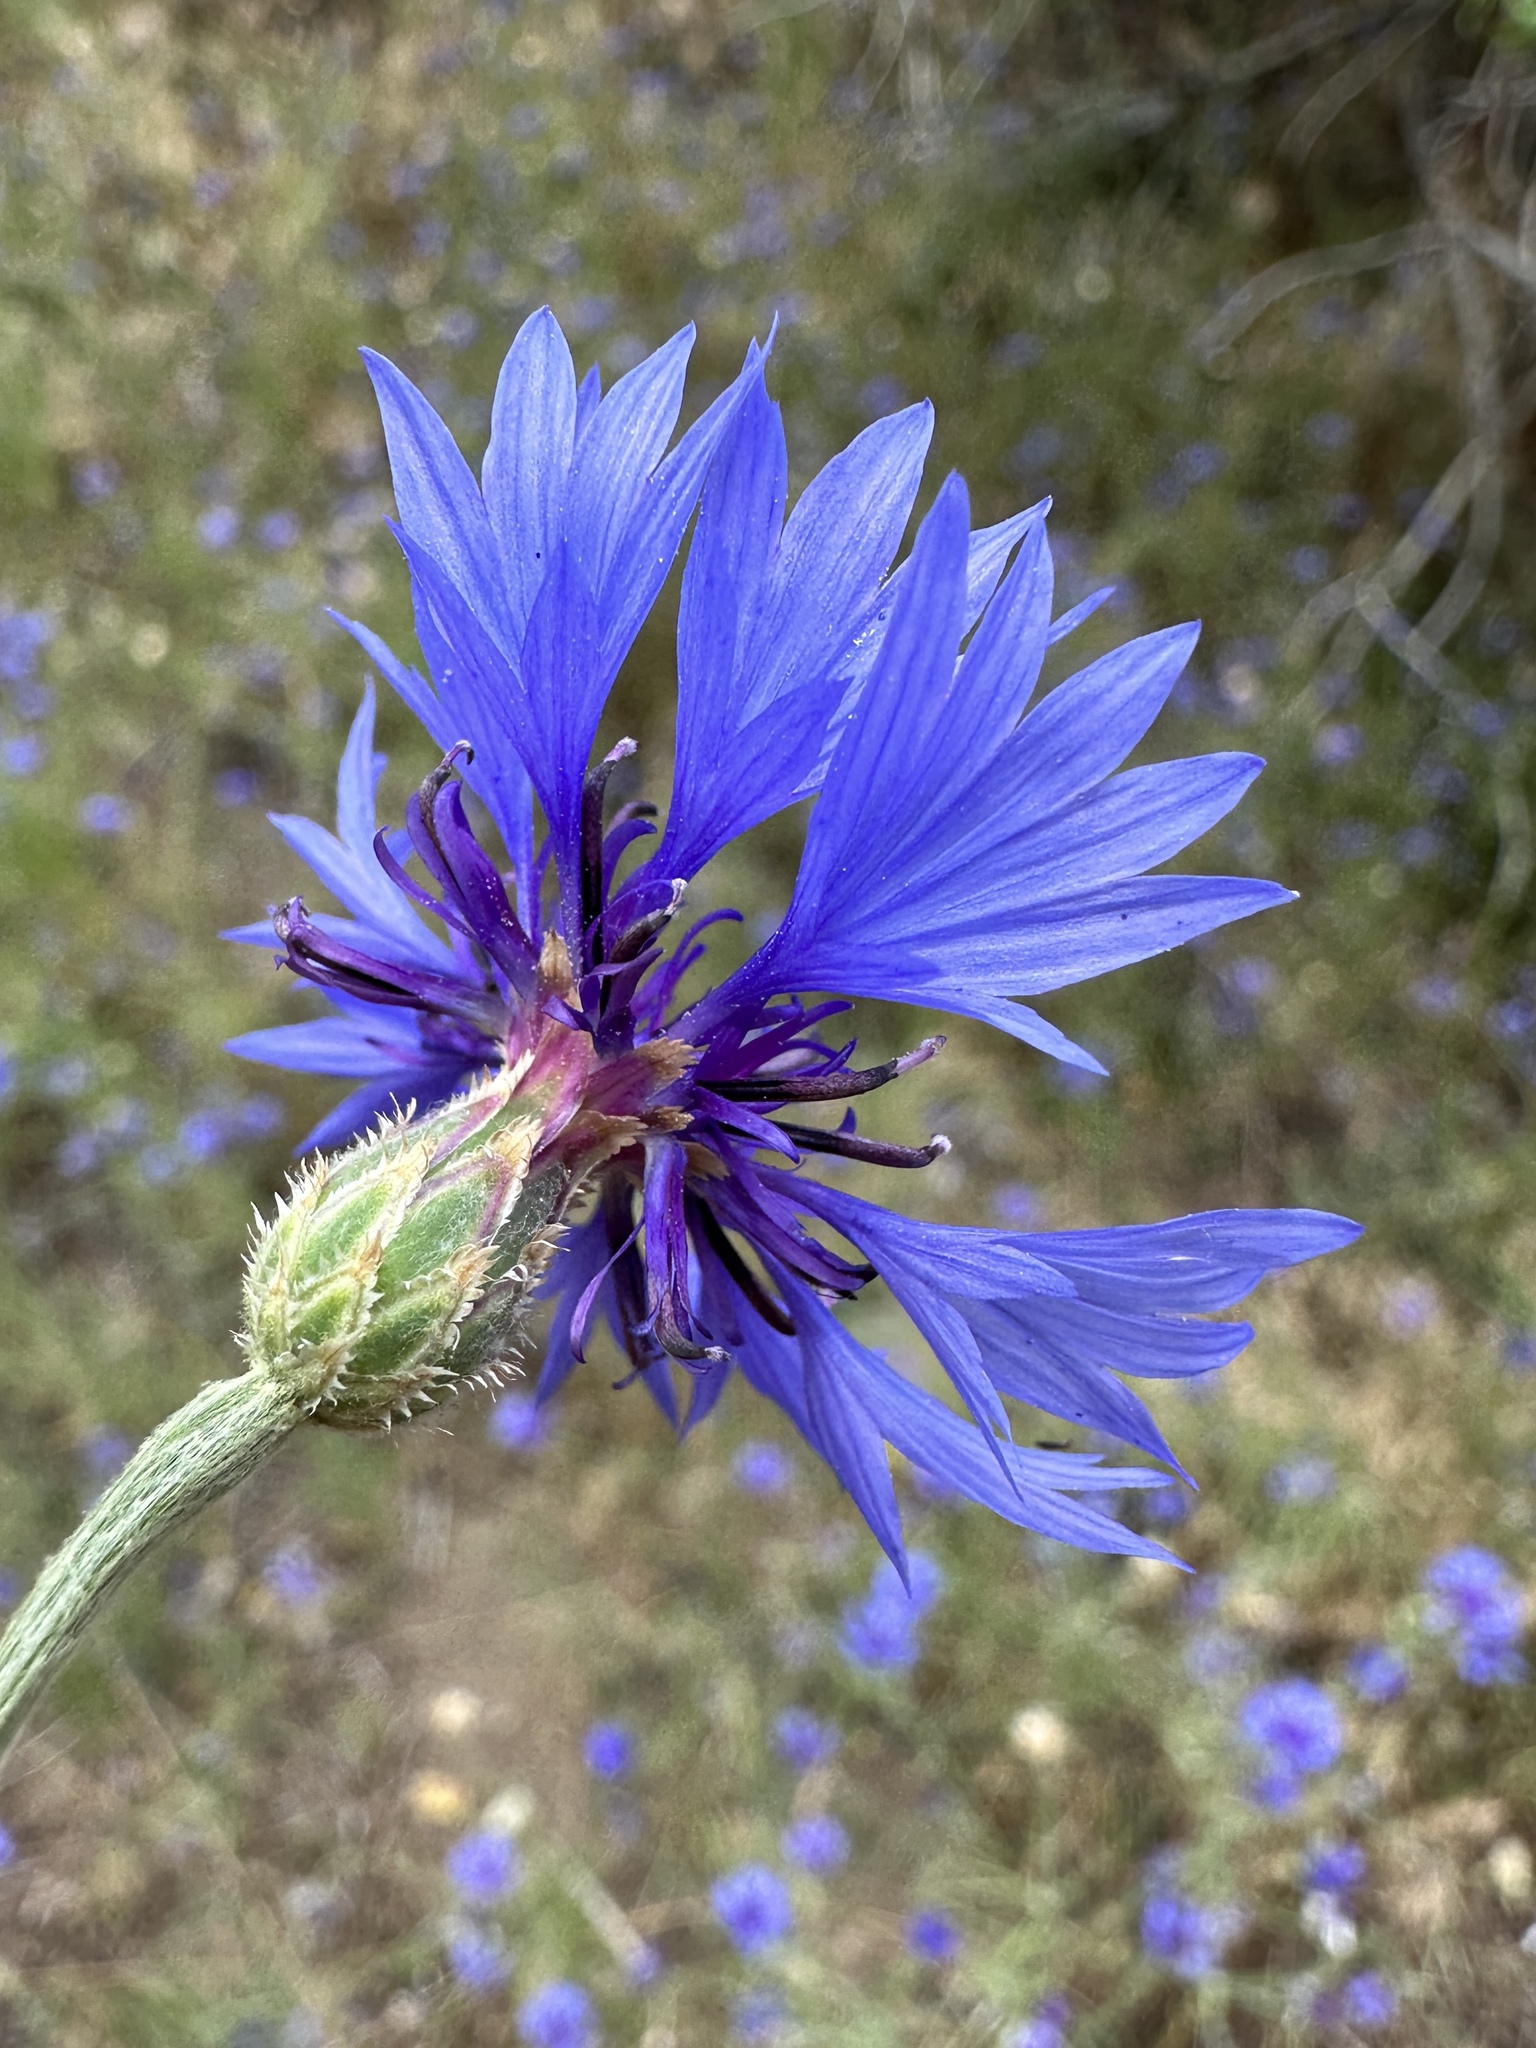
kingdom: Plantae
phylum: Tracheophyta
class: Magnoliopsida
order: Asterales
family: Asteraceae
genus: Centaurea
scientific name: Centaurea cyanus
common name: Cornflower
